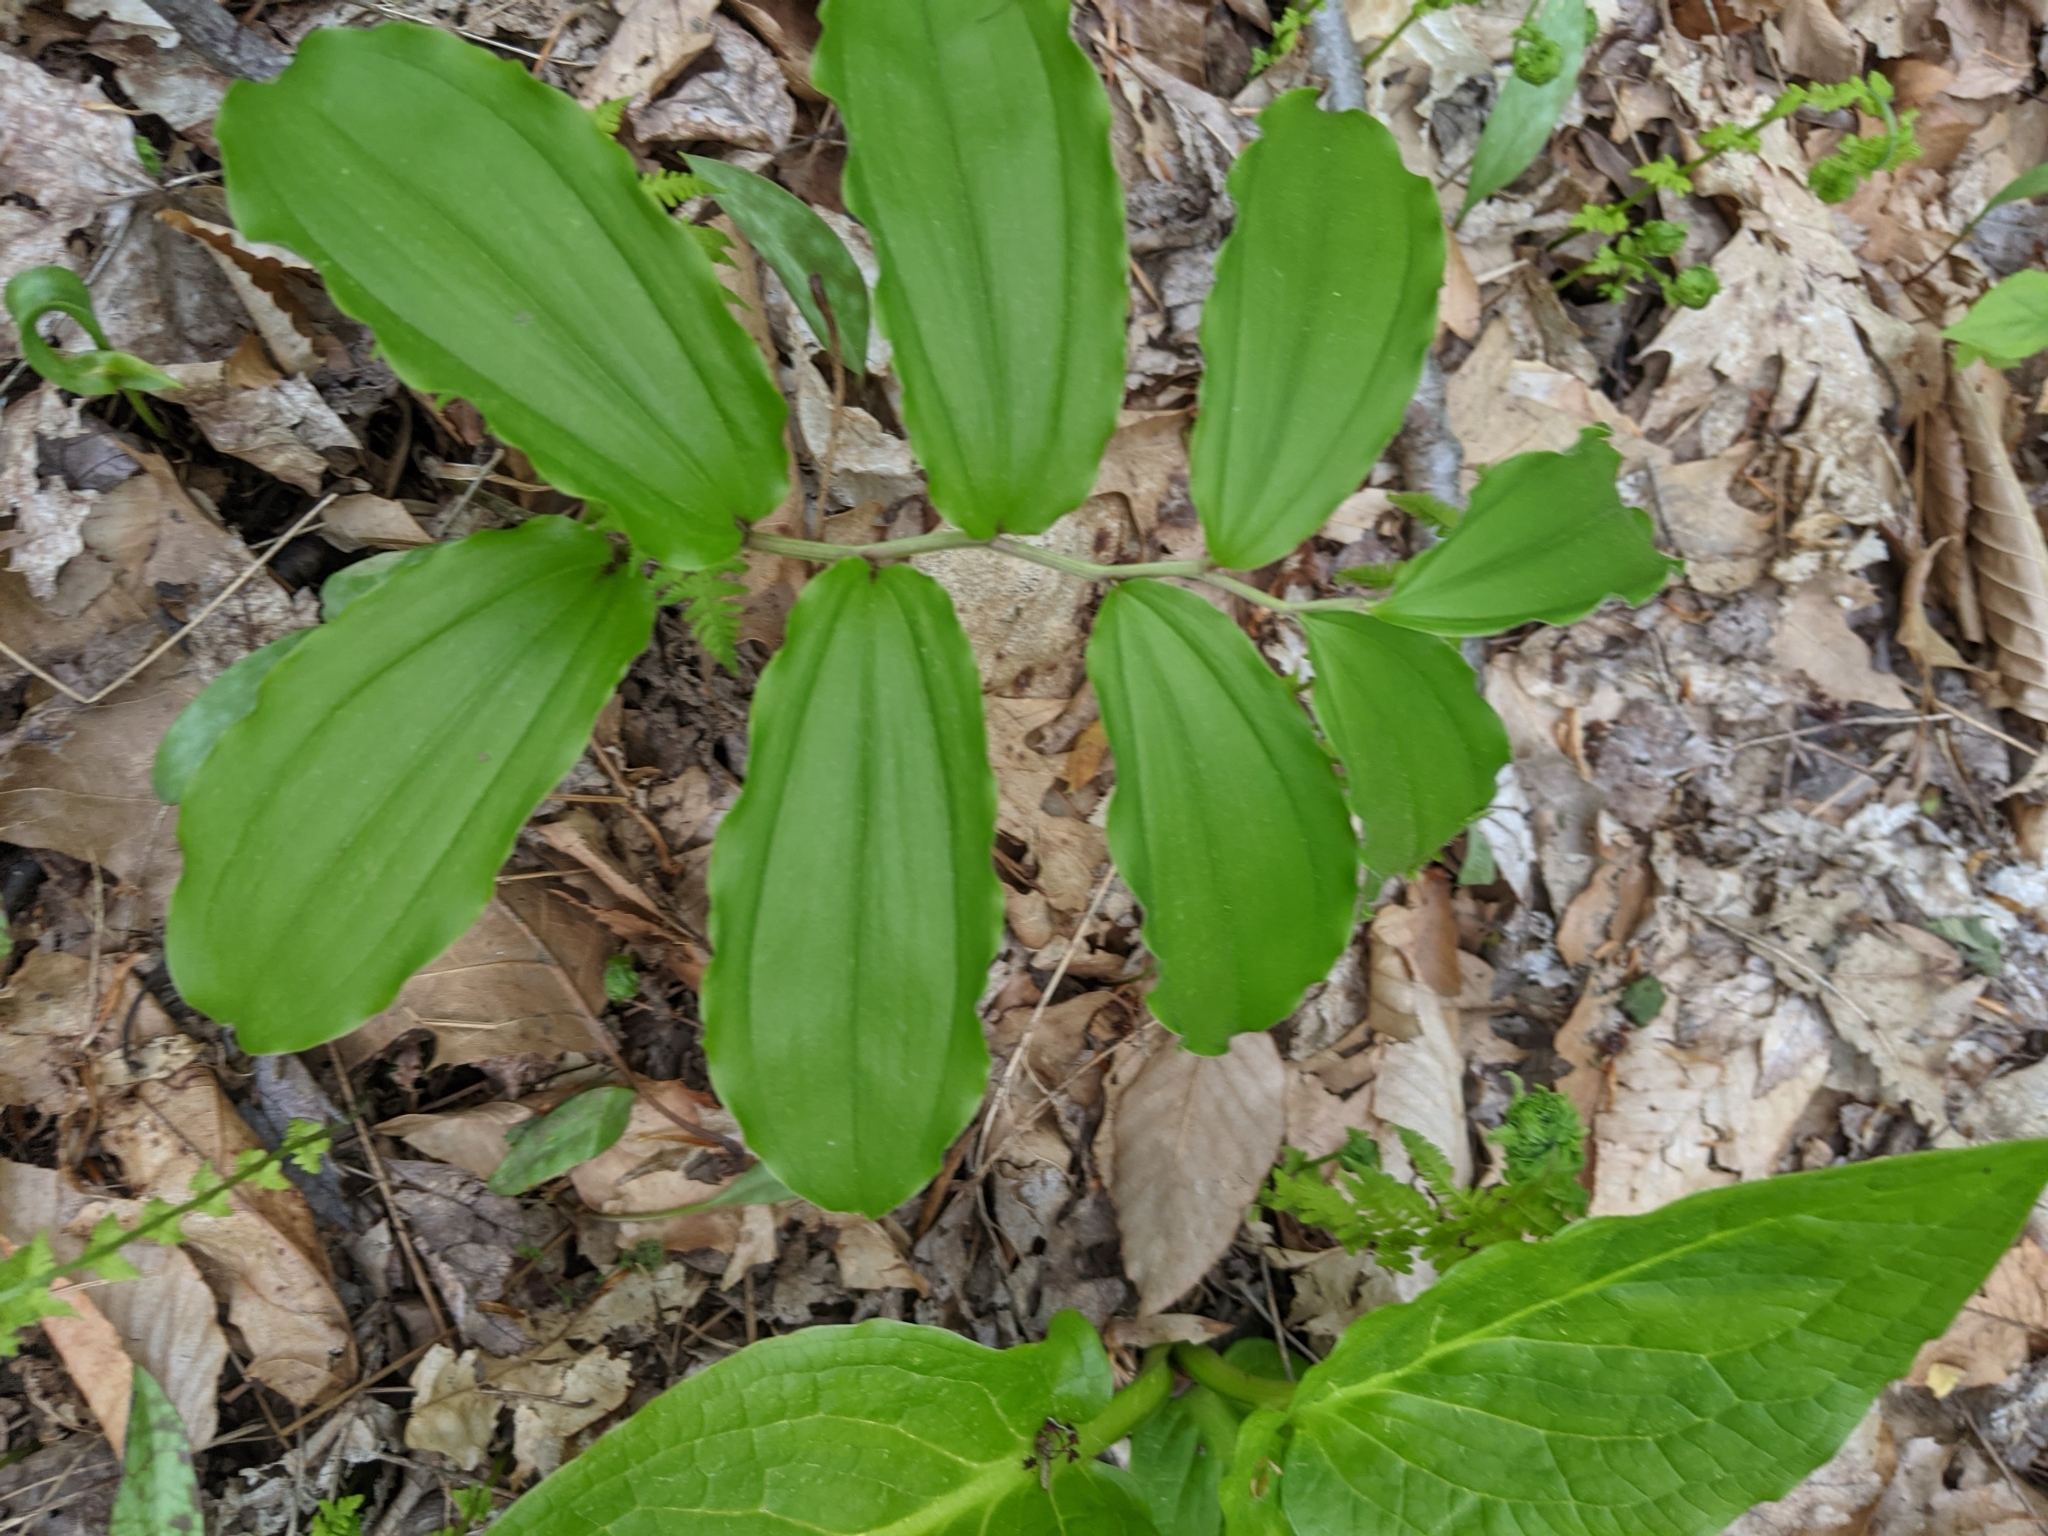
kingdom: Plantae
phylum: Tracheophyta
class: Liliopsida
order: Asparagales
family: Asparagaceae
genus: Maianthemum
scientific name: Maianthemum racemosum
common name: False spikenard
